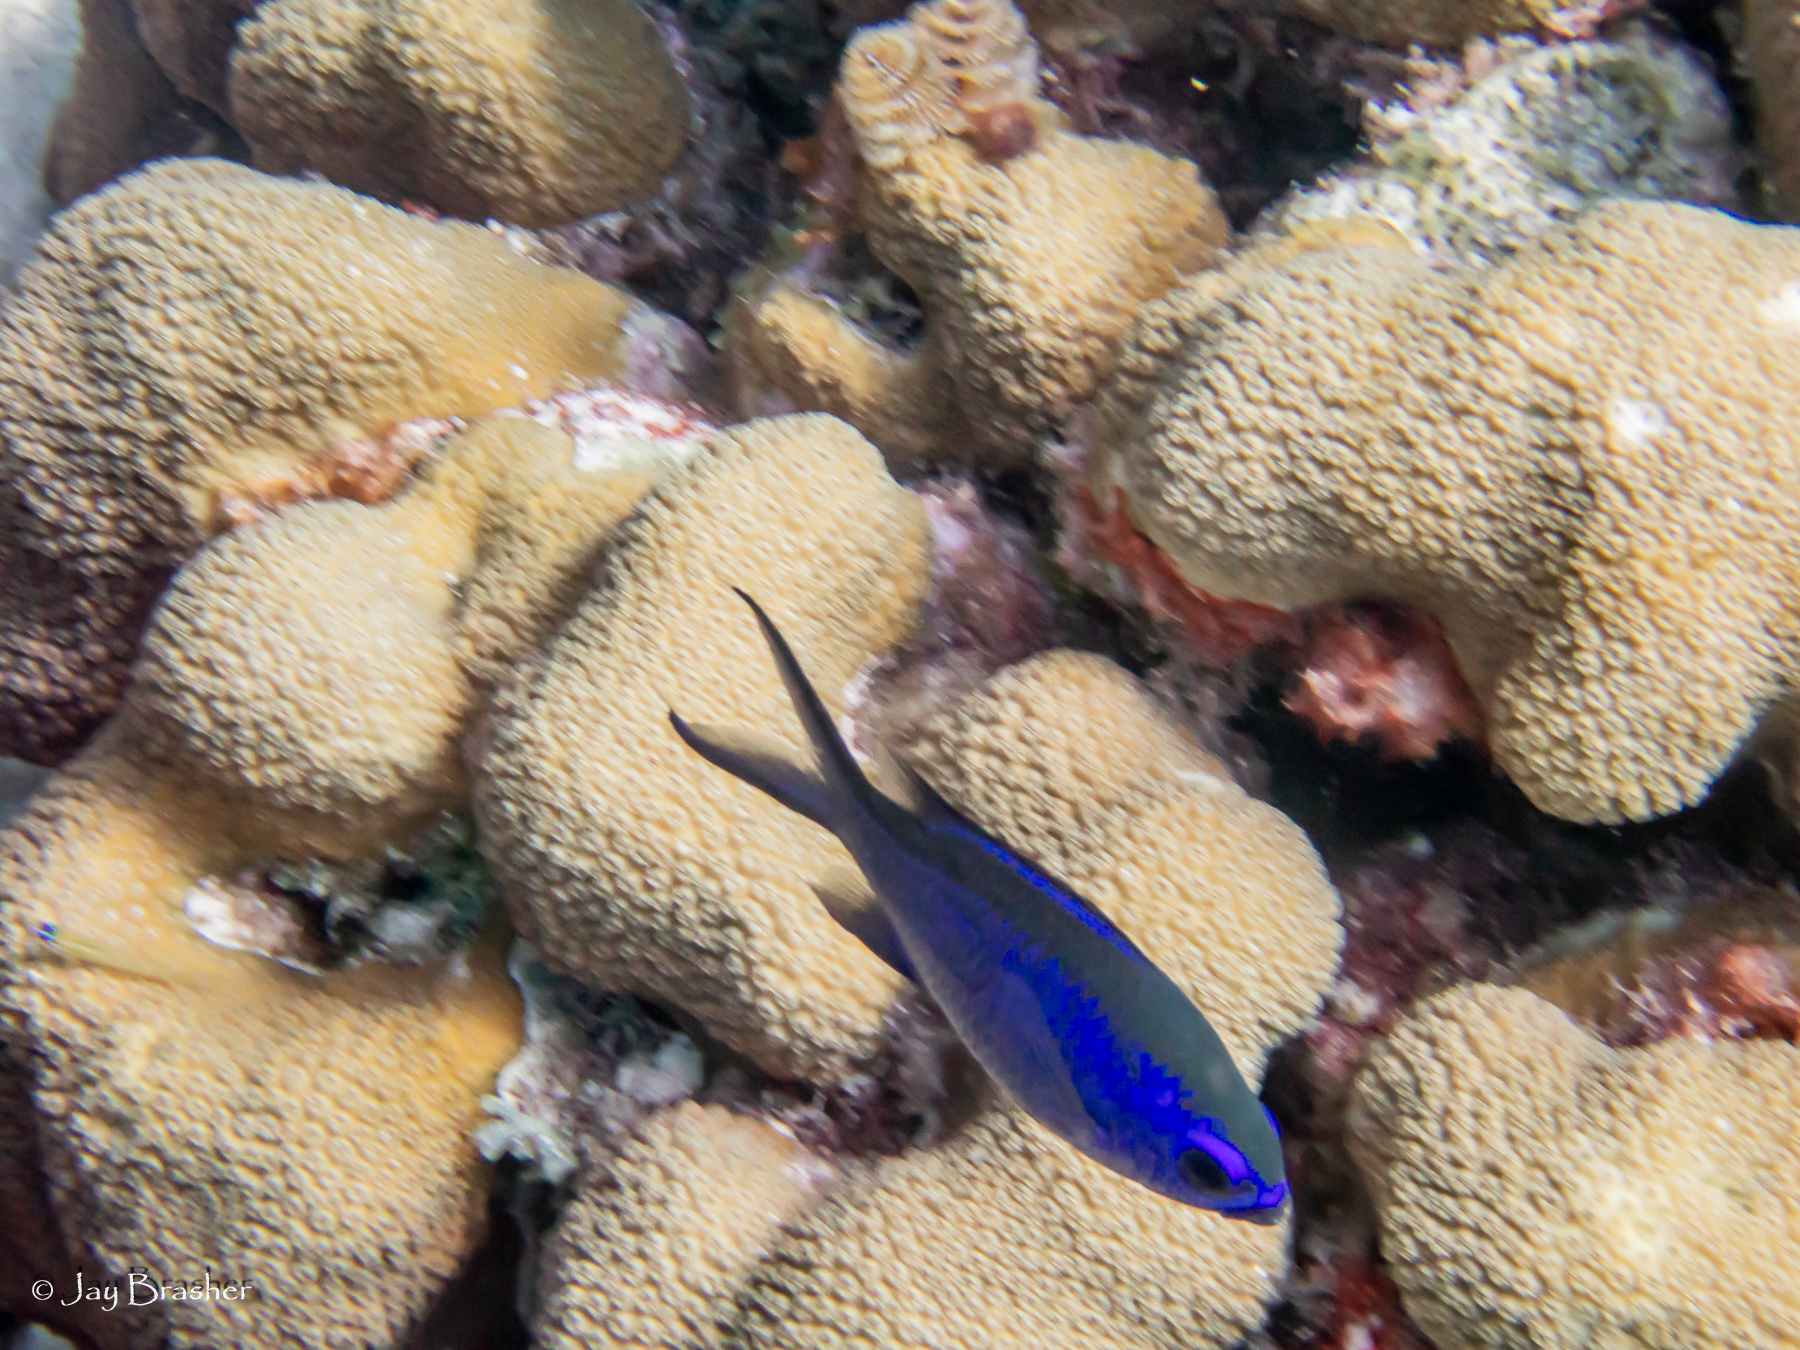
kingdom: Animalia
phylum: Cnidaria
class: Anthozoa
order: Scleractinia
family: Merulinidae
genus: Orbicella
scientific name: Orbicella annularis
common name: Boulder star coral
